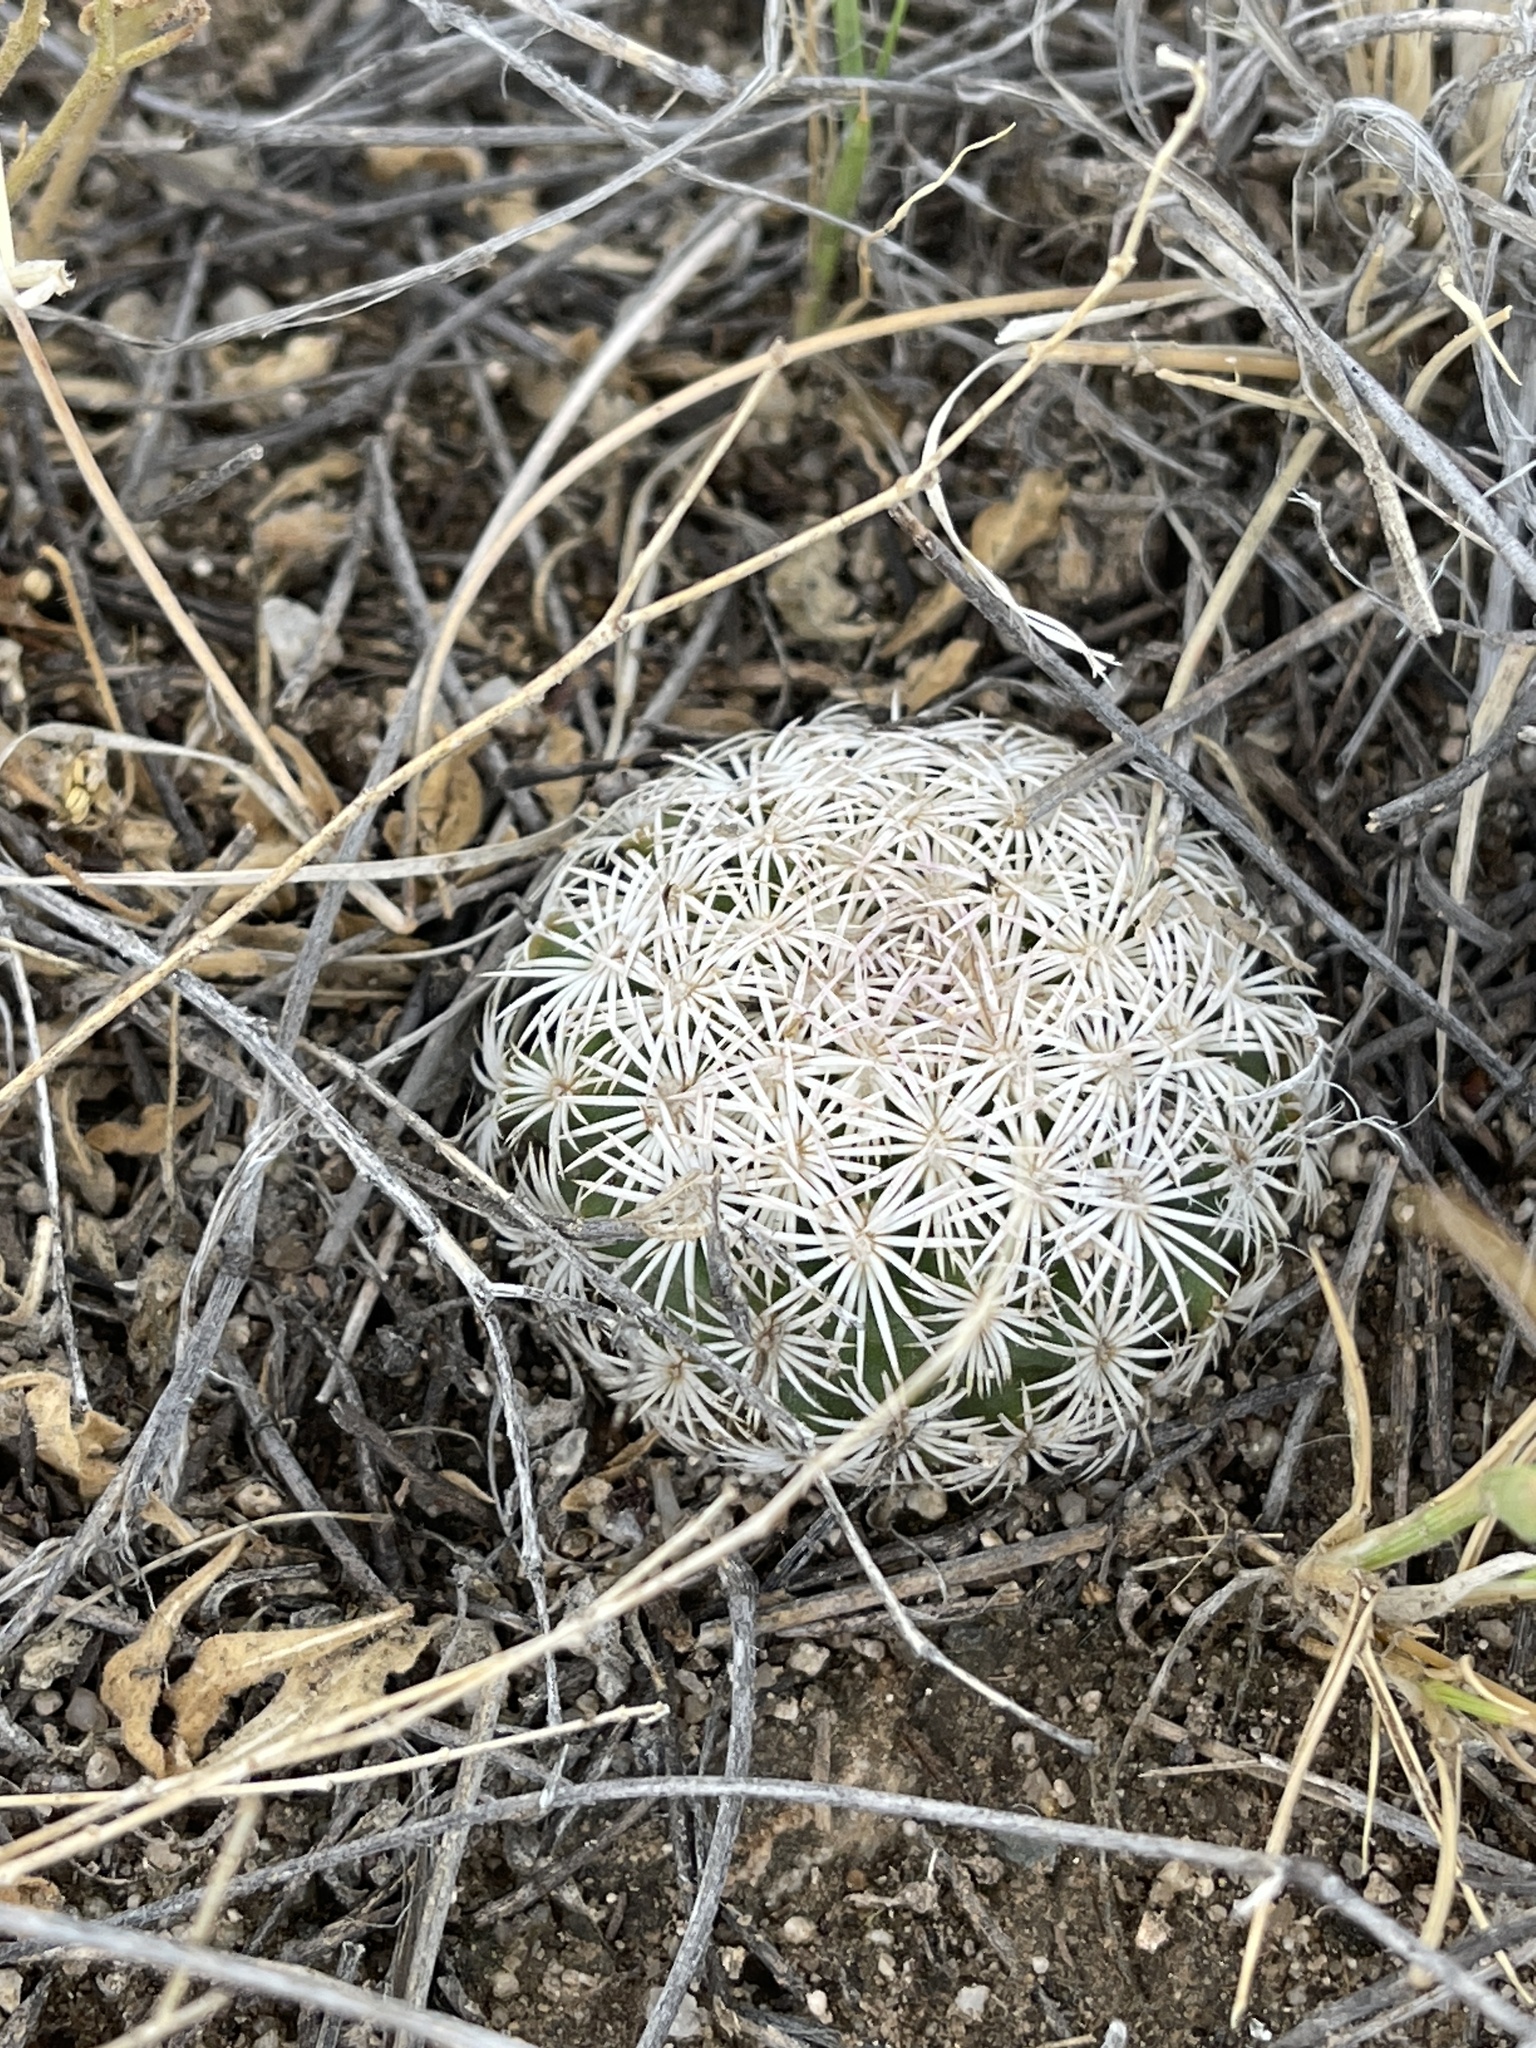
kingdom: Plantae
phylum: Tracheophyta
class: Magnoliopsida
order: Caryophyllales
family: Cactaceae
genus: Sclerocactus
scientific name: Sclerocactus johnsonii
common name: Eight-spine fishhook cactus
